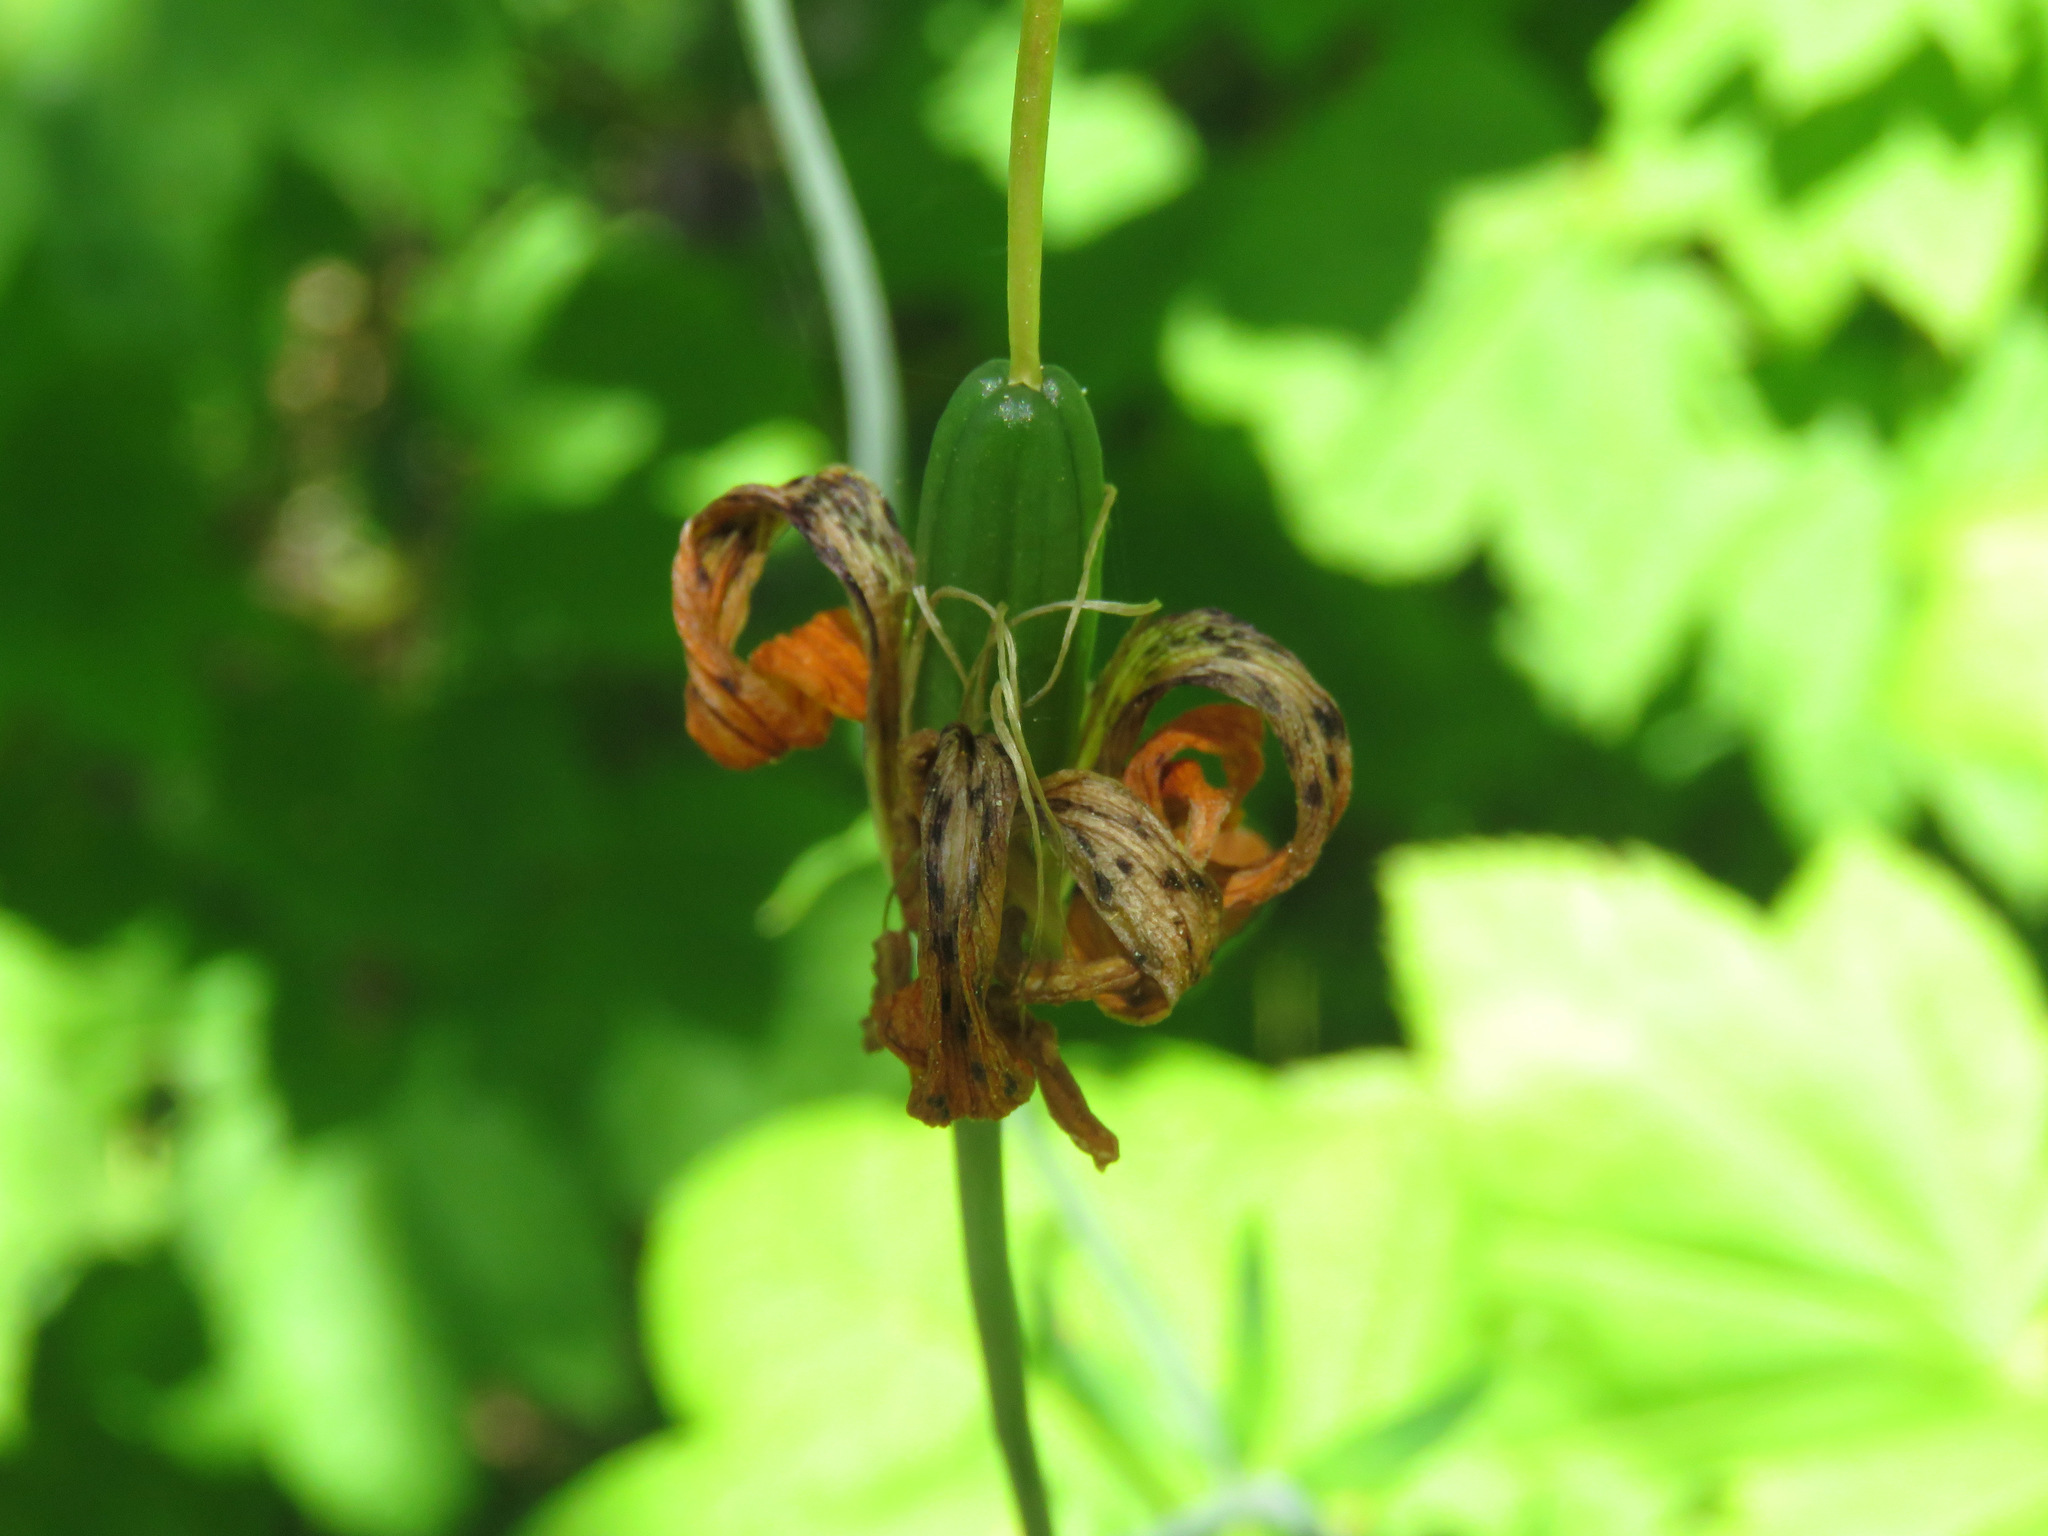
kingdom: Plantae
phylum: Tracheophyta
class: Liliopsida
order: Liliales
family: Liliaceae
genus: Lilium
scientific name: Lilium columbianum
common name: Columbia lily
